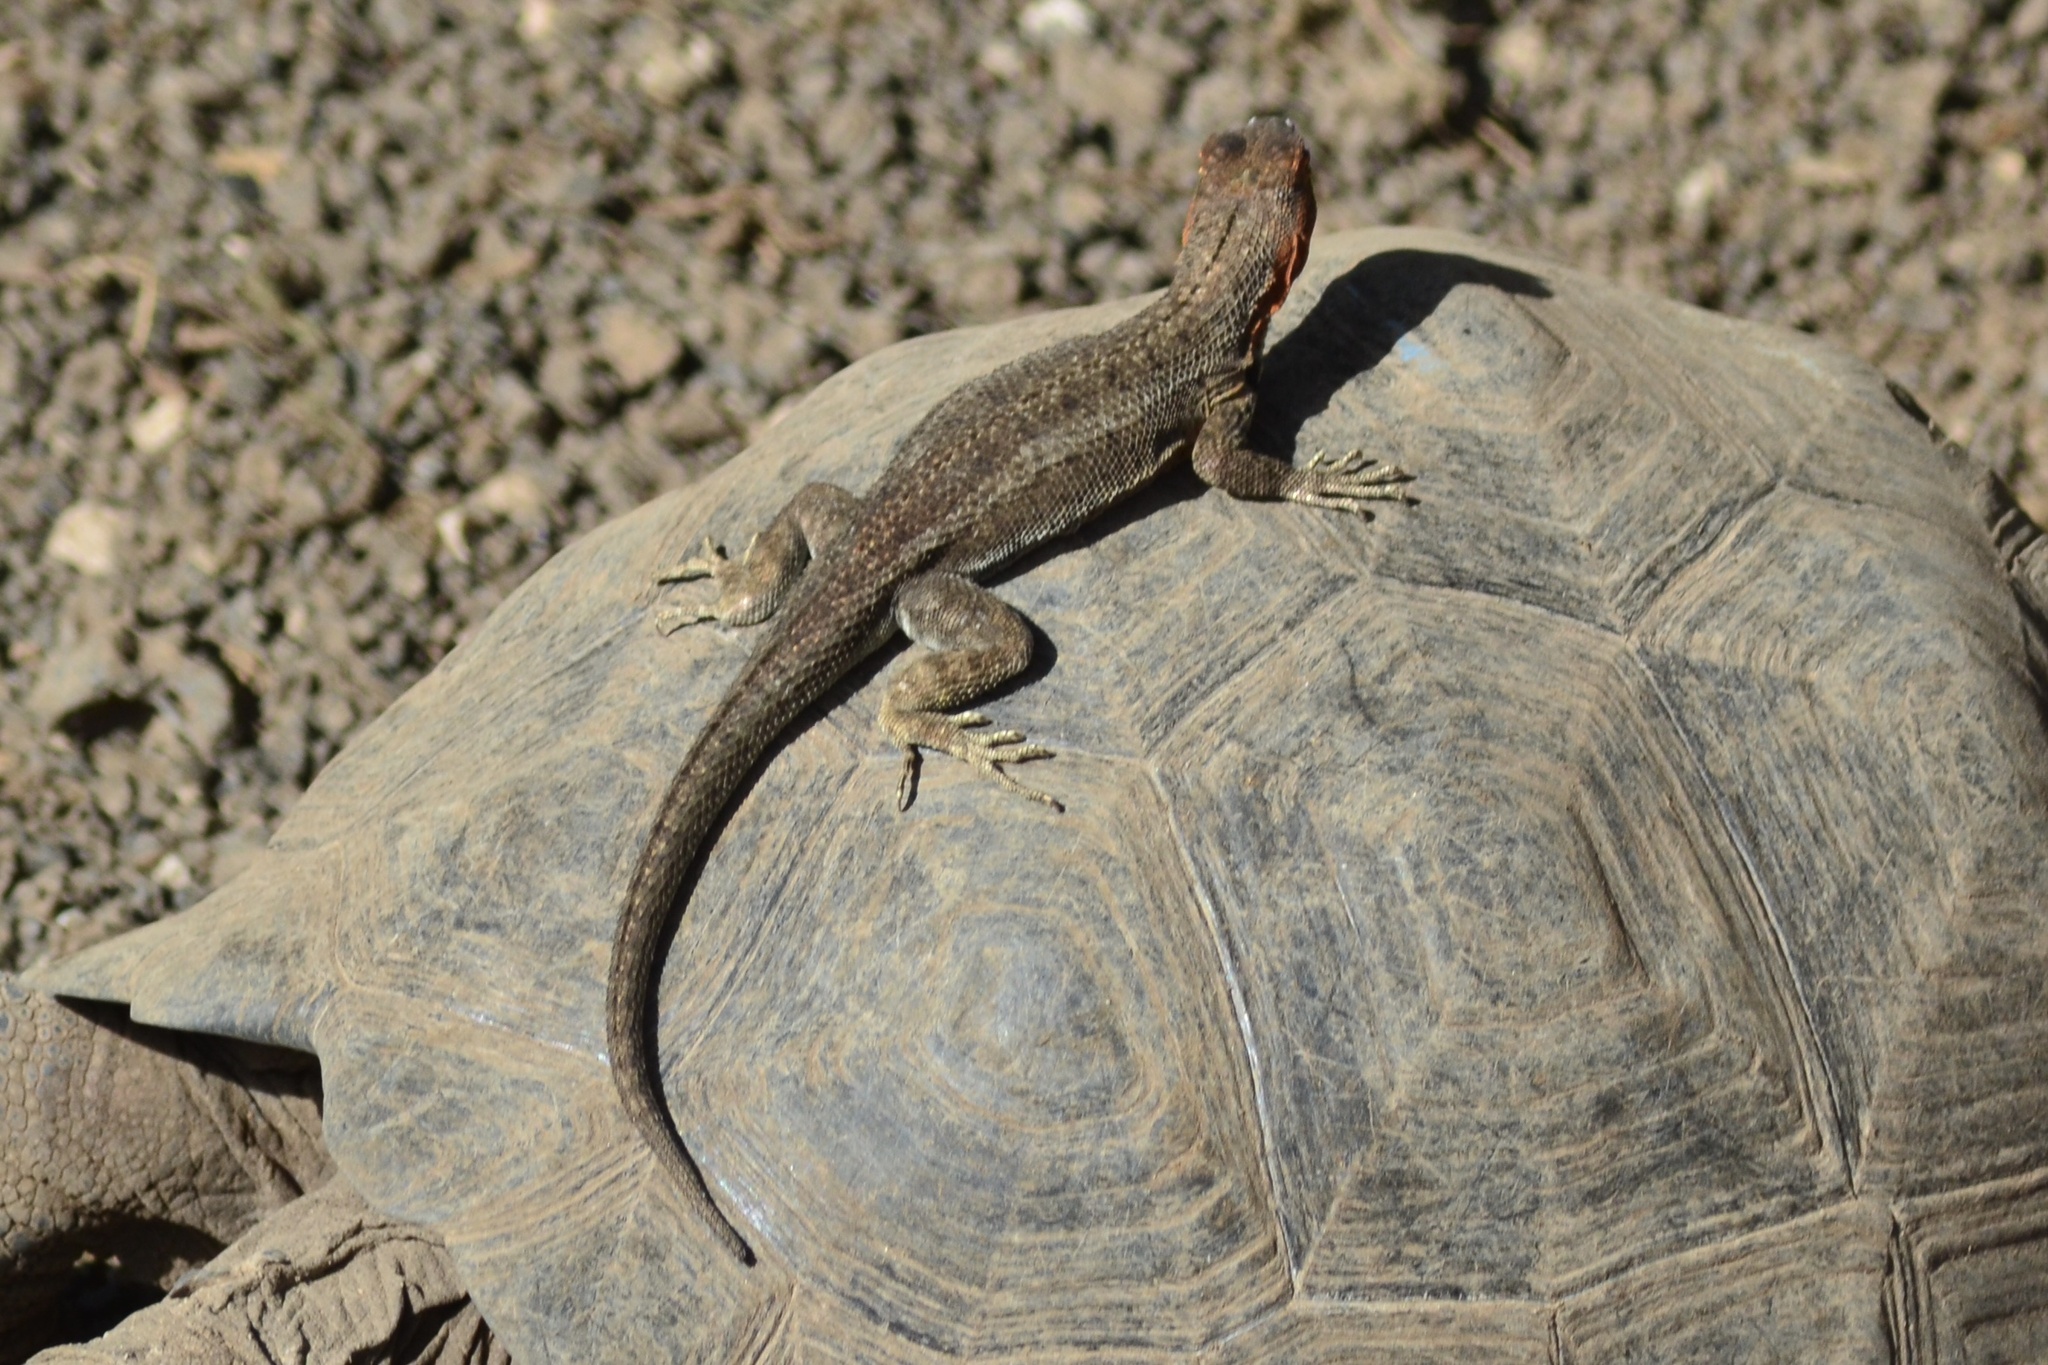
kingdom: Animalia
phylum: Chordata
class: Squamata
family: Tropiduridae
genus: Microlophus
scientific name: Microlophus albemarlensis
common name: Galapagos lava lizard
